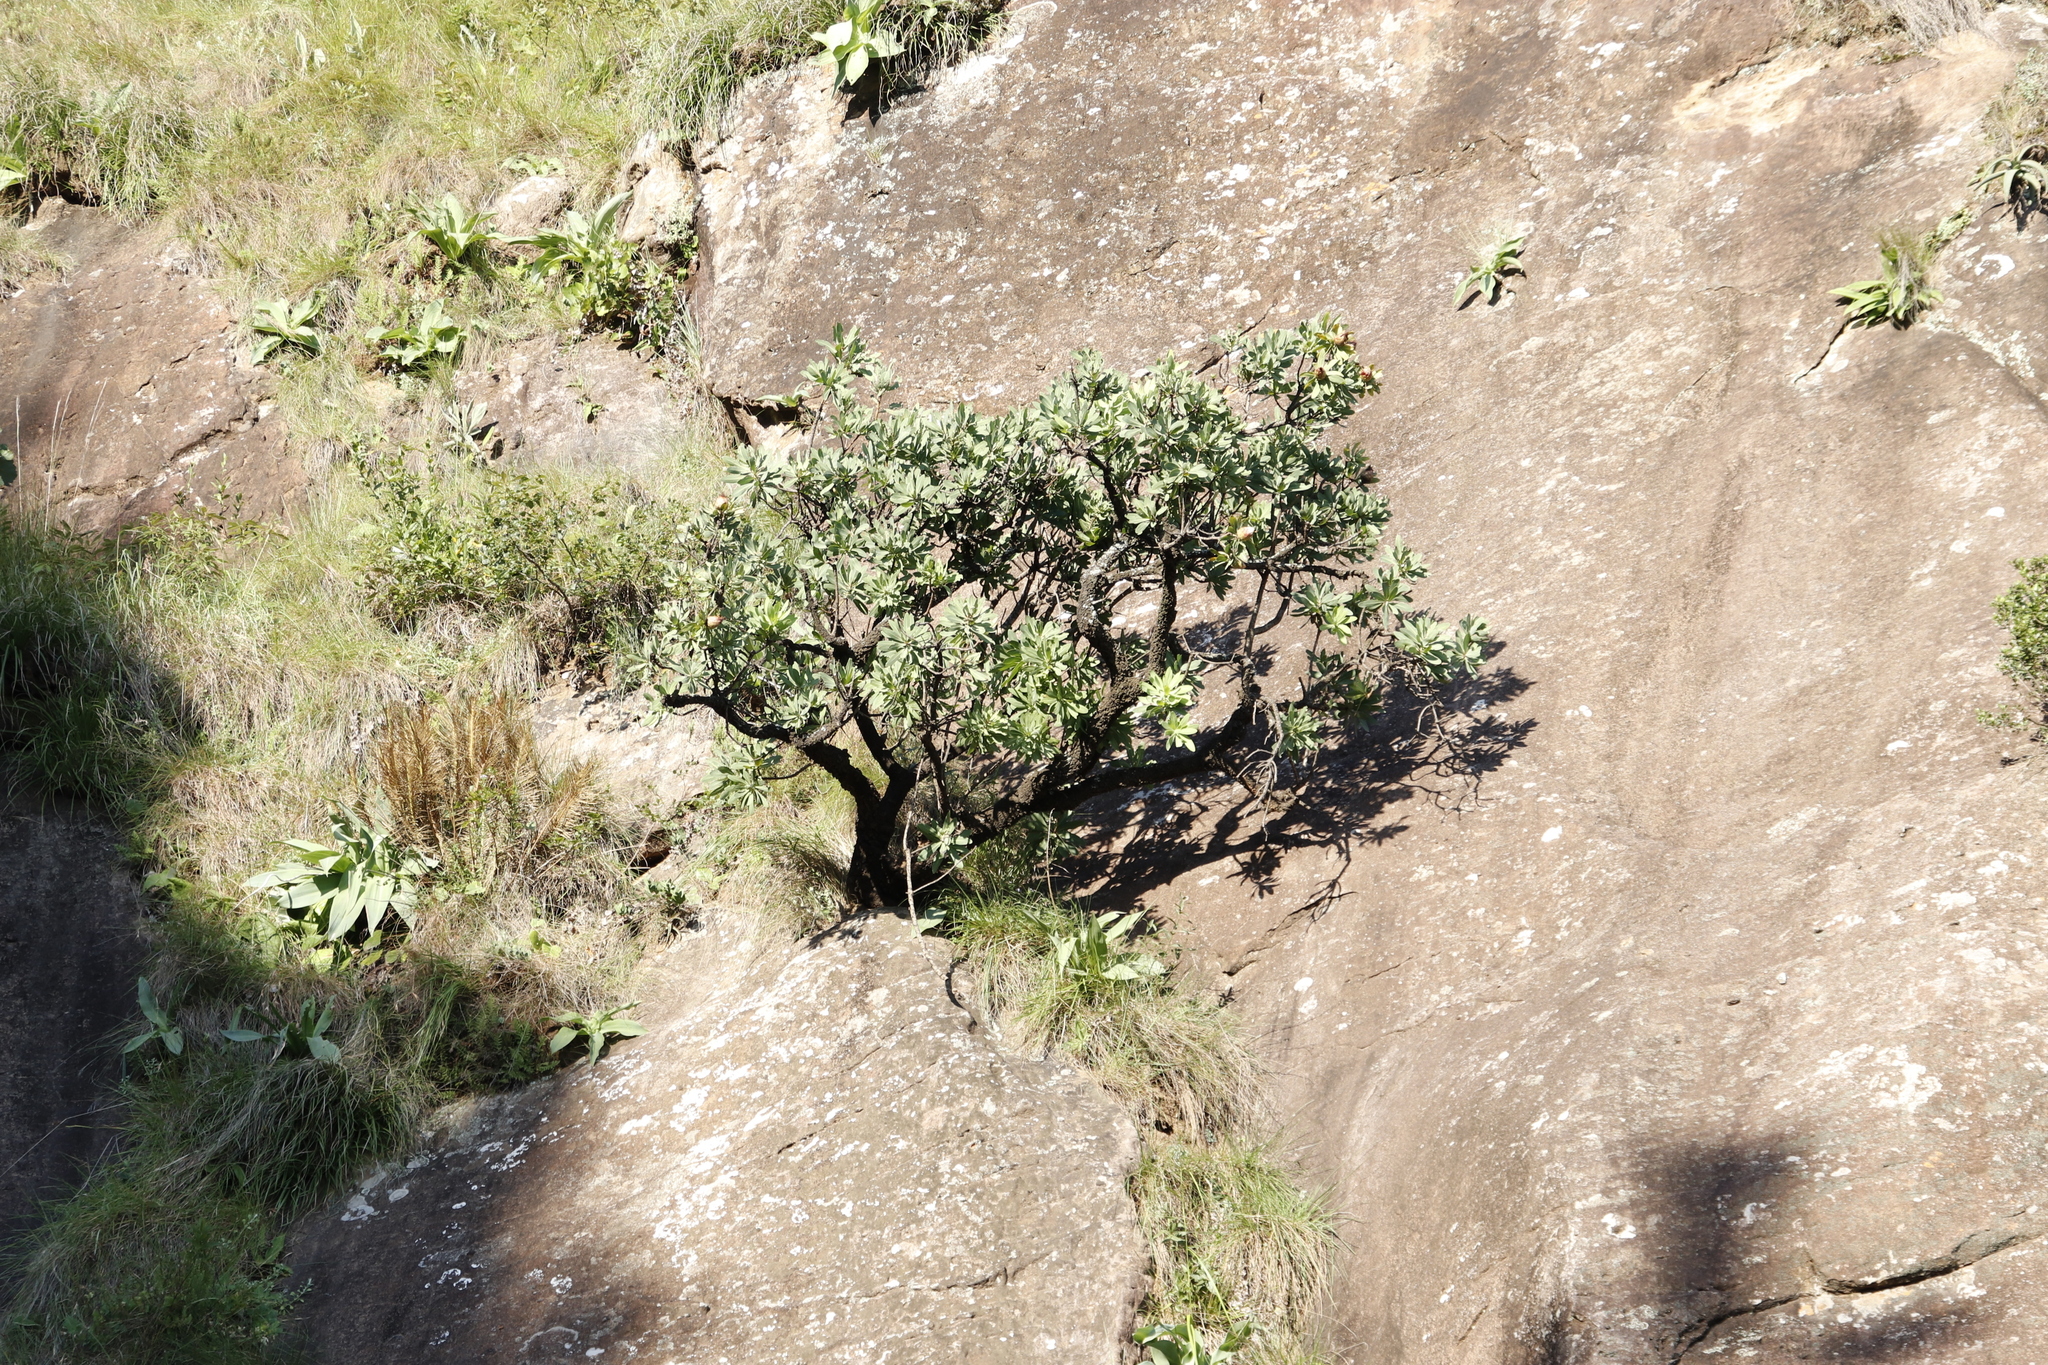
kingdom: Plantae
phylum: Tracheophyta
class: Magnoliopsida
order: Proteales
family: Proteaceae
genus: Protea
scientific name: Protea caffra
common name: Common sugarbush
